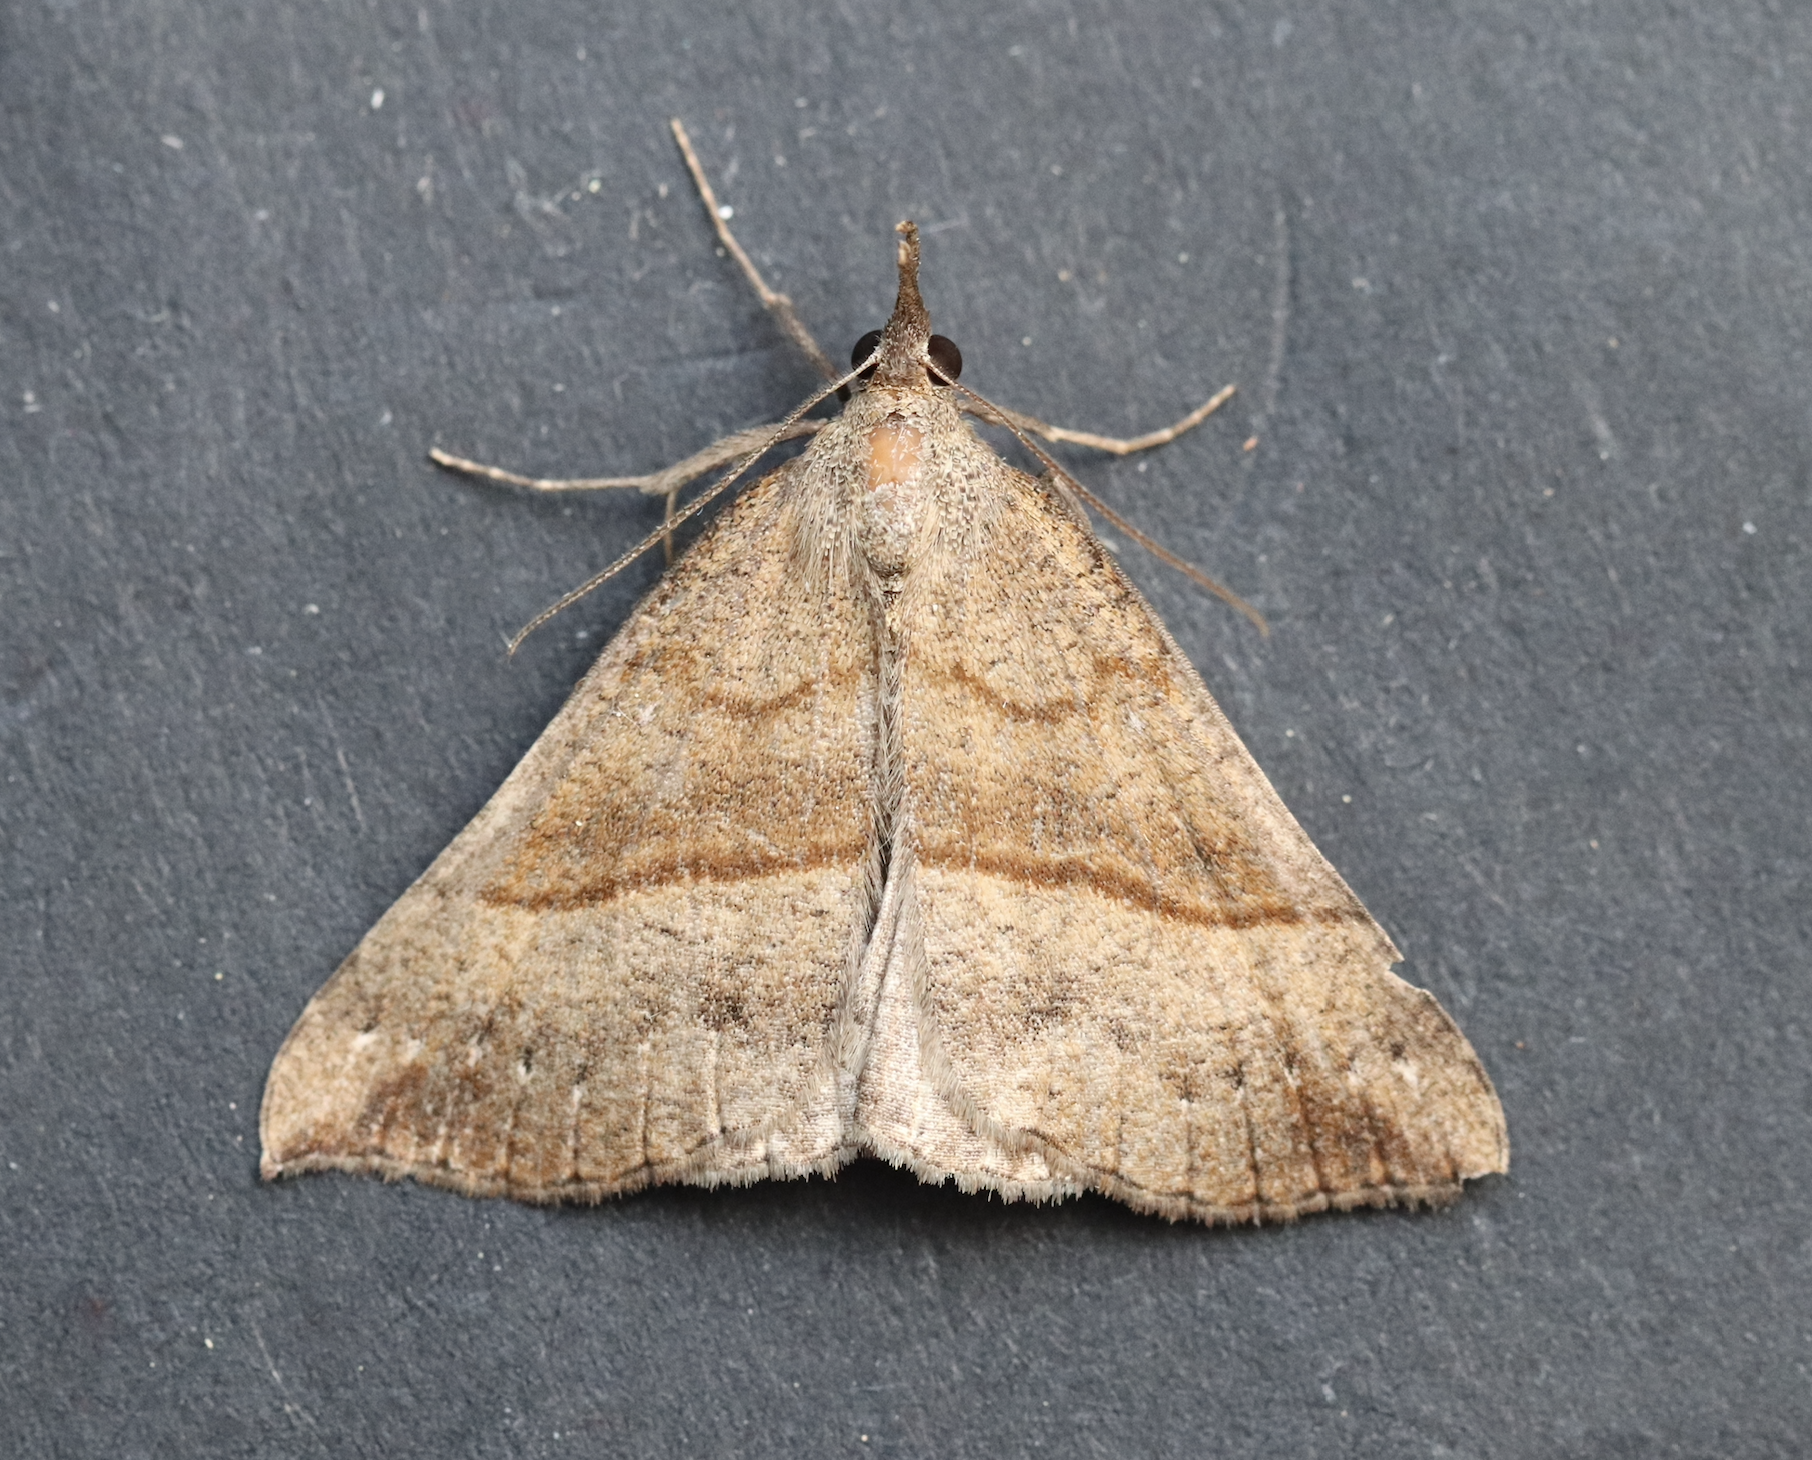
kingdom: Animalia
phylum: Arthropoda
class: Insecta
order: Lepidoptera
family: Erebidae
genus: Hypena
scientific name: Hypena proboscidalis
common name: Snout
